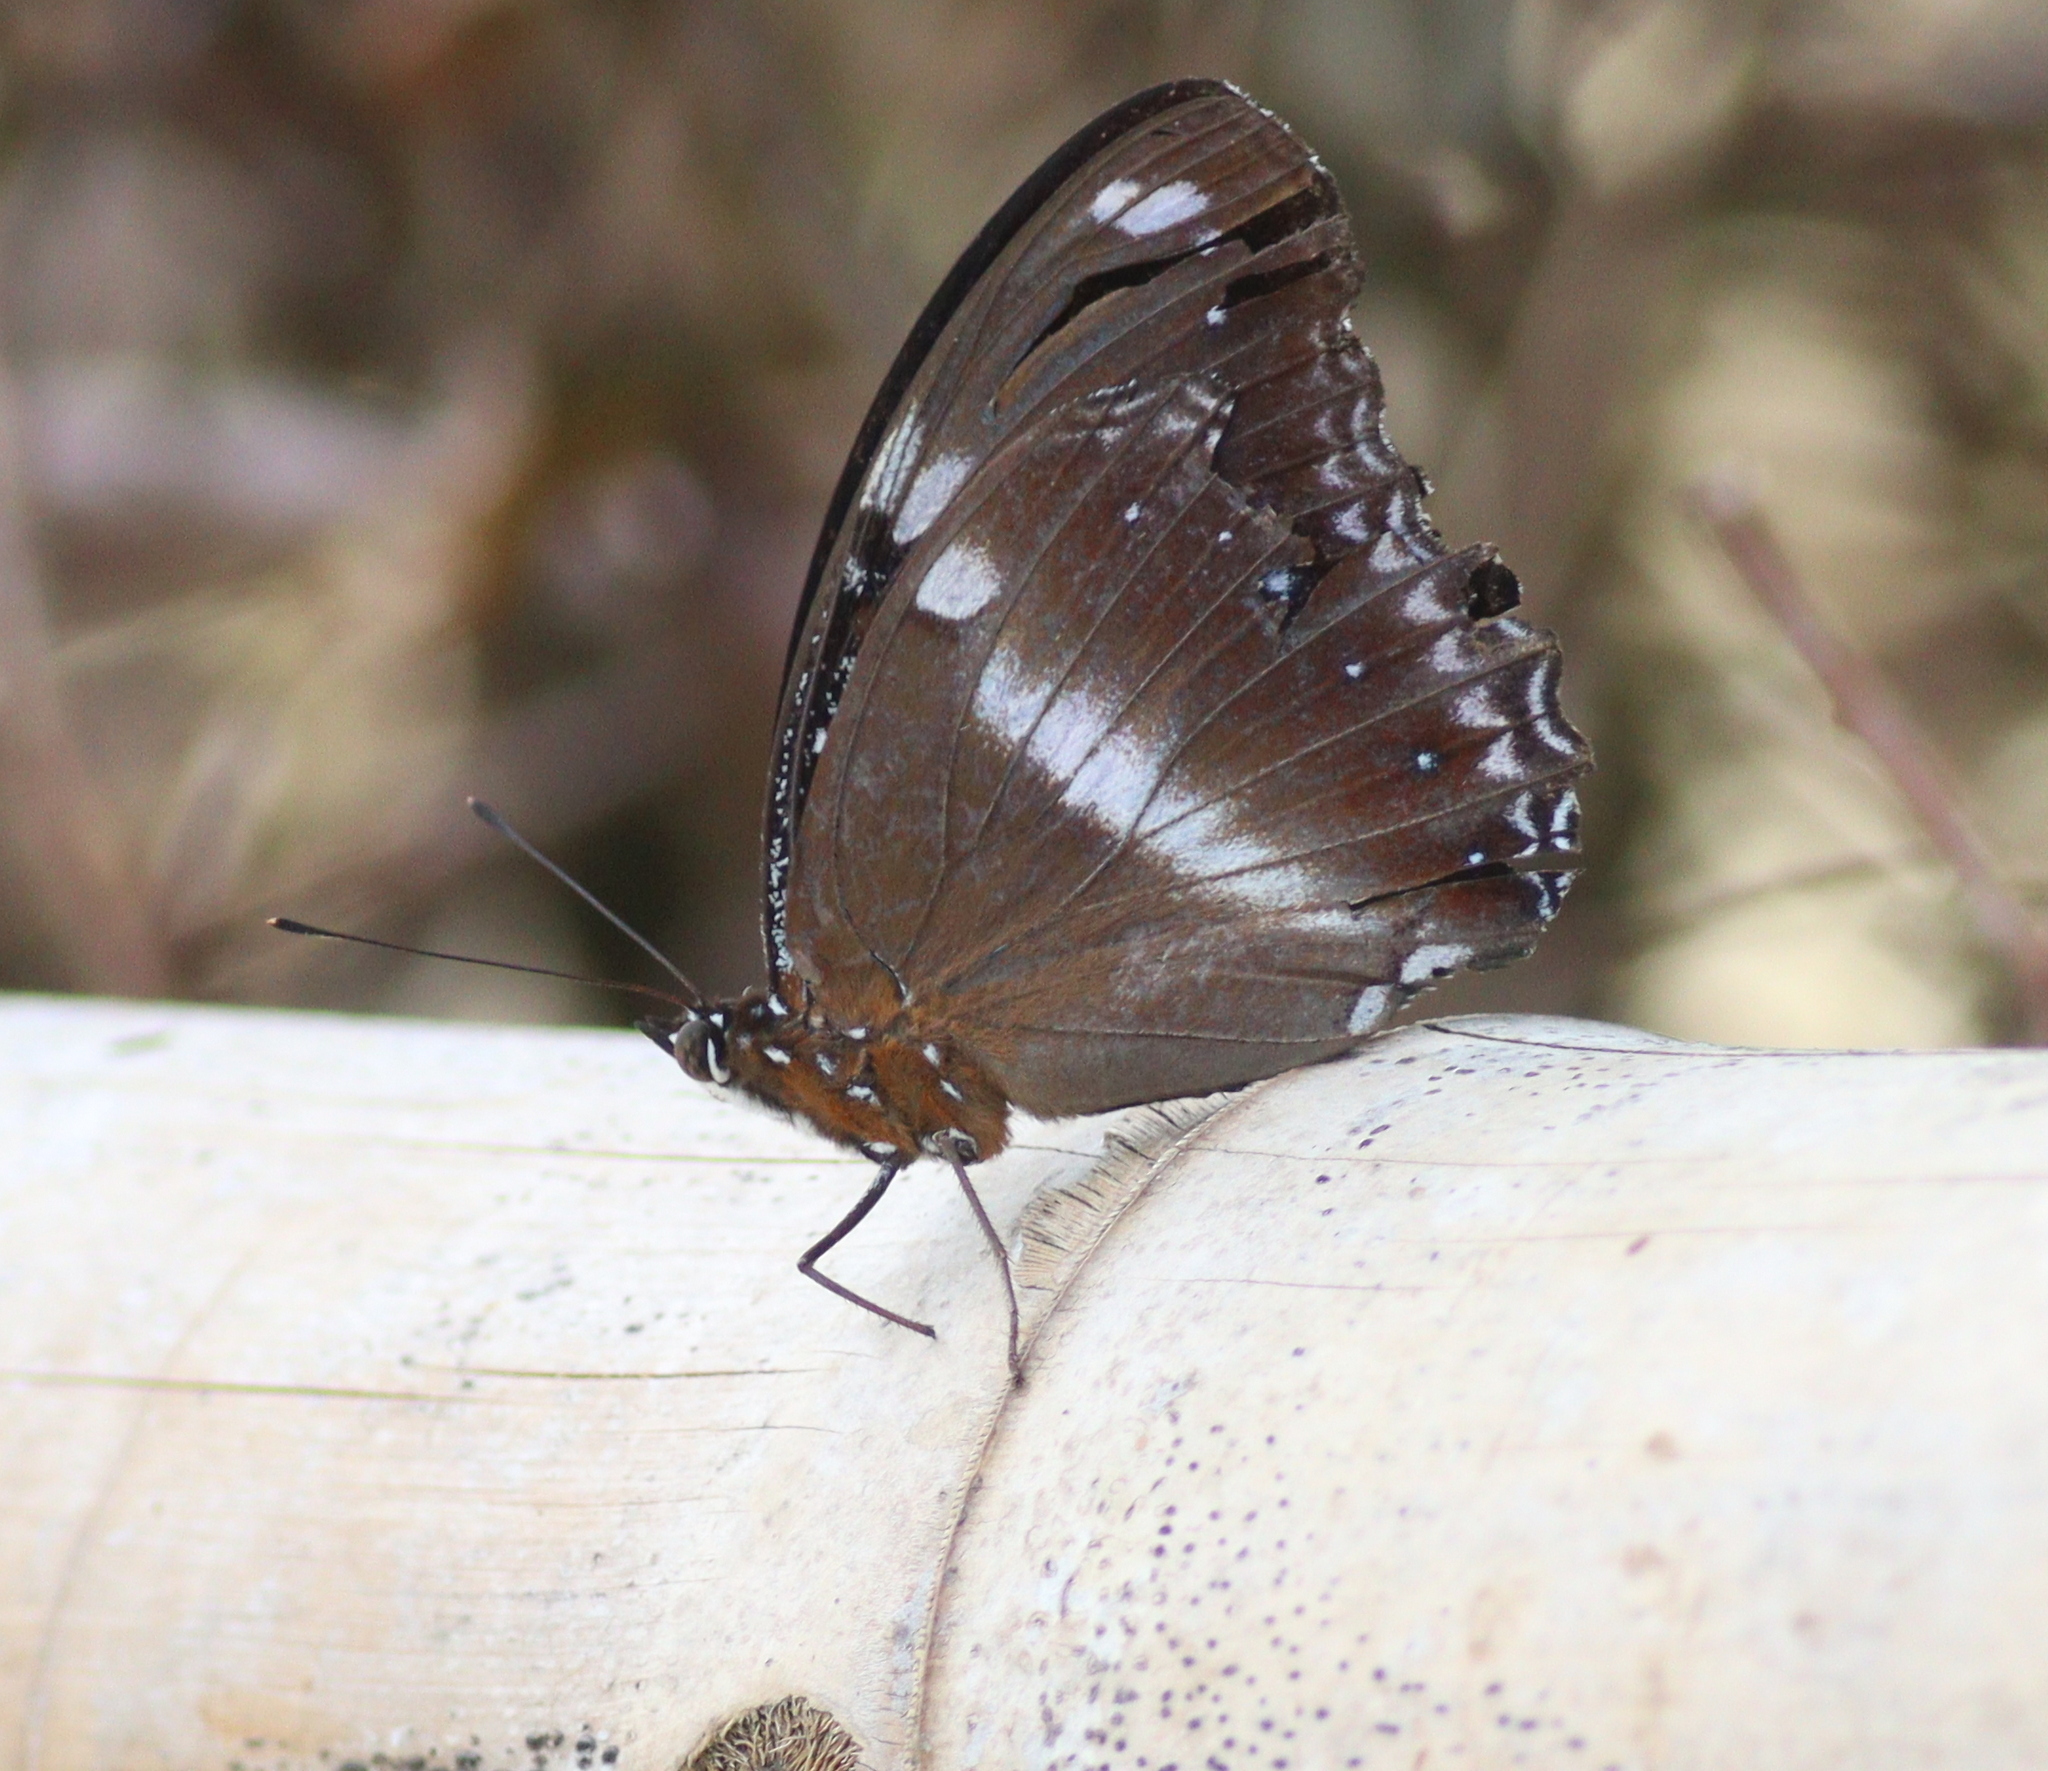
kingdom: Animalia
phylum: Arthropoda
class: Insecta
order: Lepidoptera
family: Nymphalidae
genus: Hypolimnas
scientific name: Hypolimnas bolina
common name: Great eggfly
